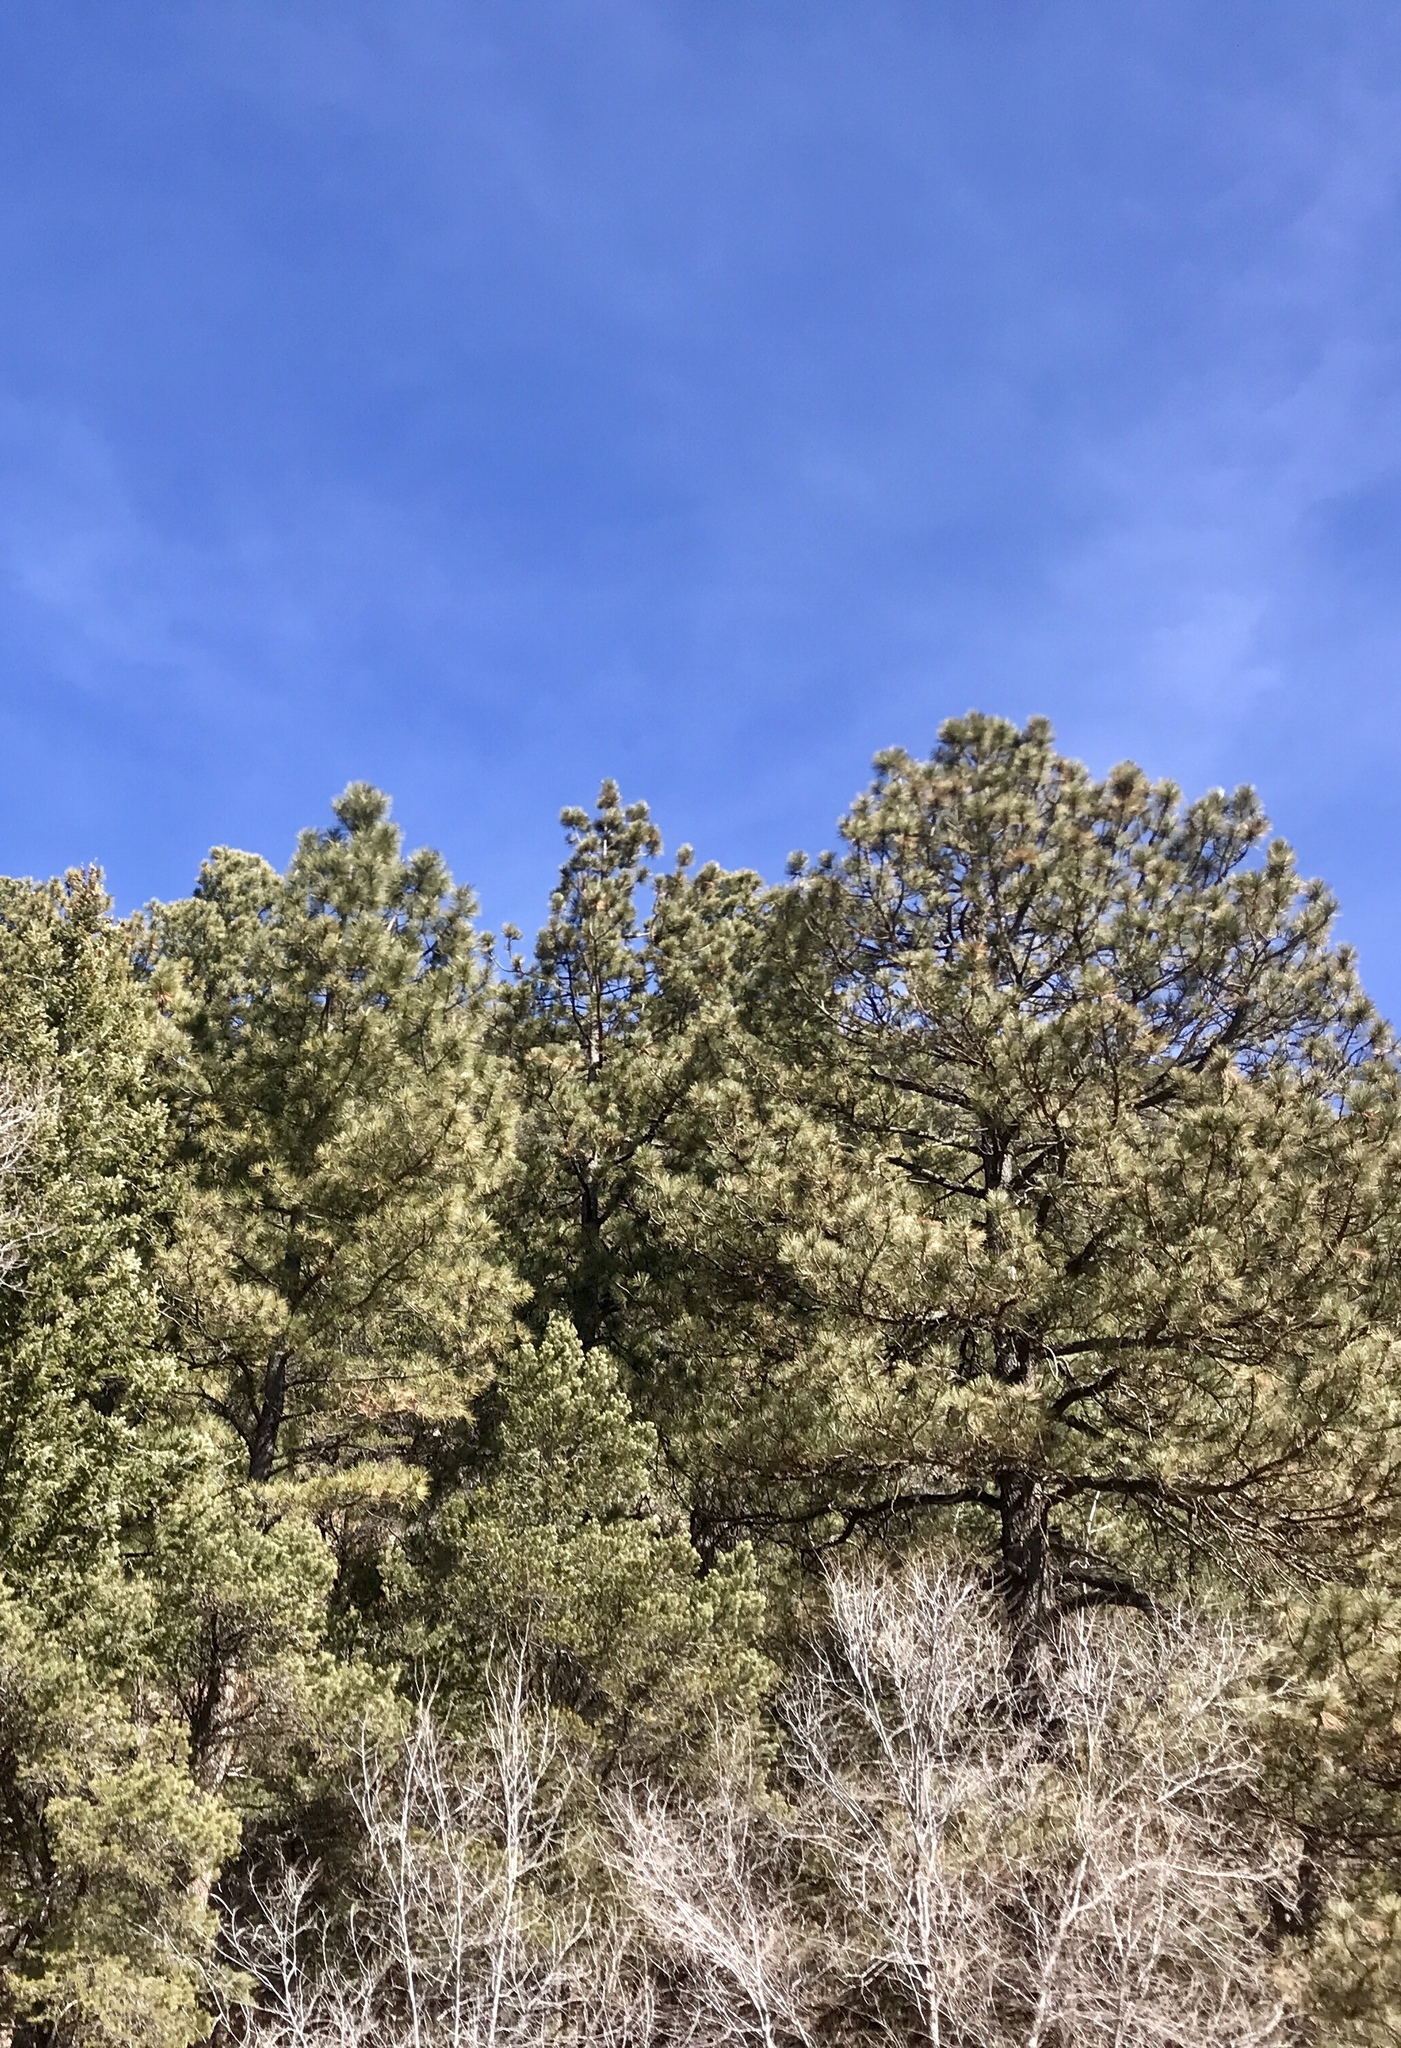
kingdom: Plantae
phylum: Tracheophyta
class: Pinopsida
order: Pinales
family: Pinaceae
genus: Pinus
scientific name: Pinus ponderosa
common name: Western yellow-pine
